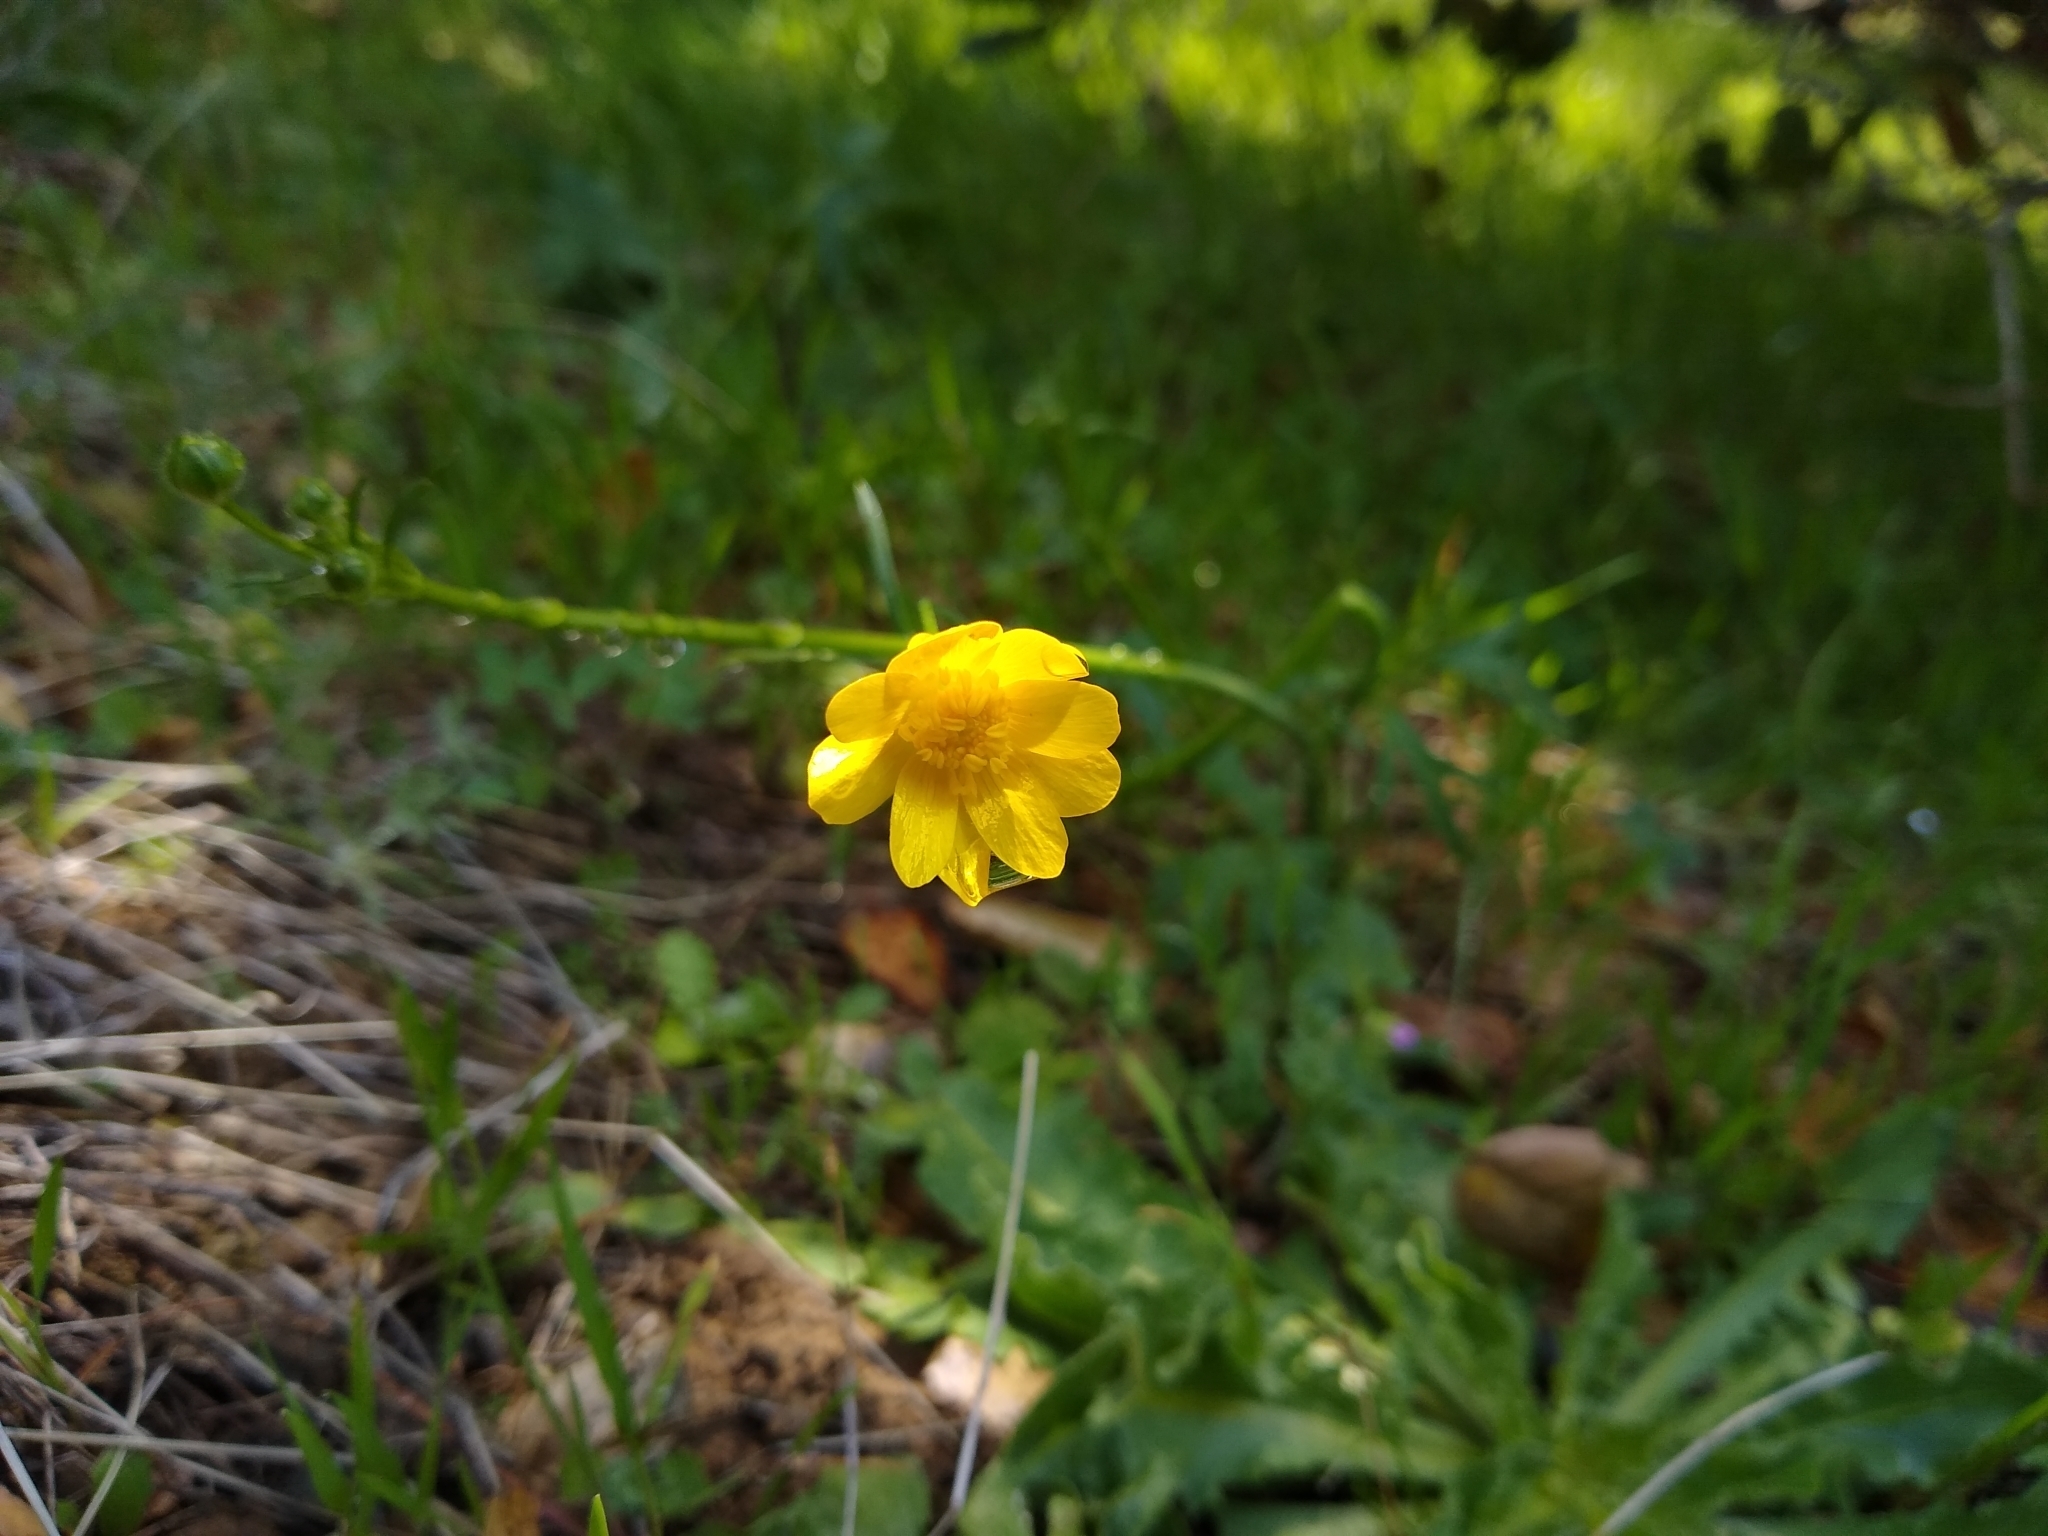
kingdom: Plantae
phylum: Tracheophyta
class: Magnoliopsida
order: Ranunculales
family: Ranunculaceae
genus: Ranunculus
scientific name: Ranunculus californicus
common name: California buttercup
